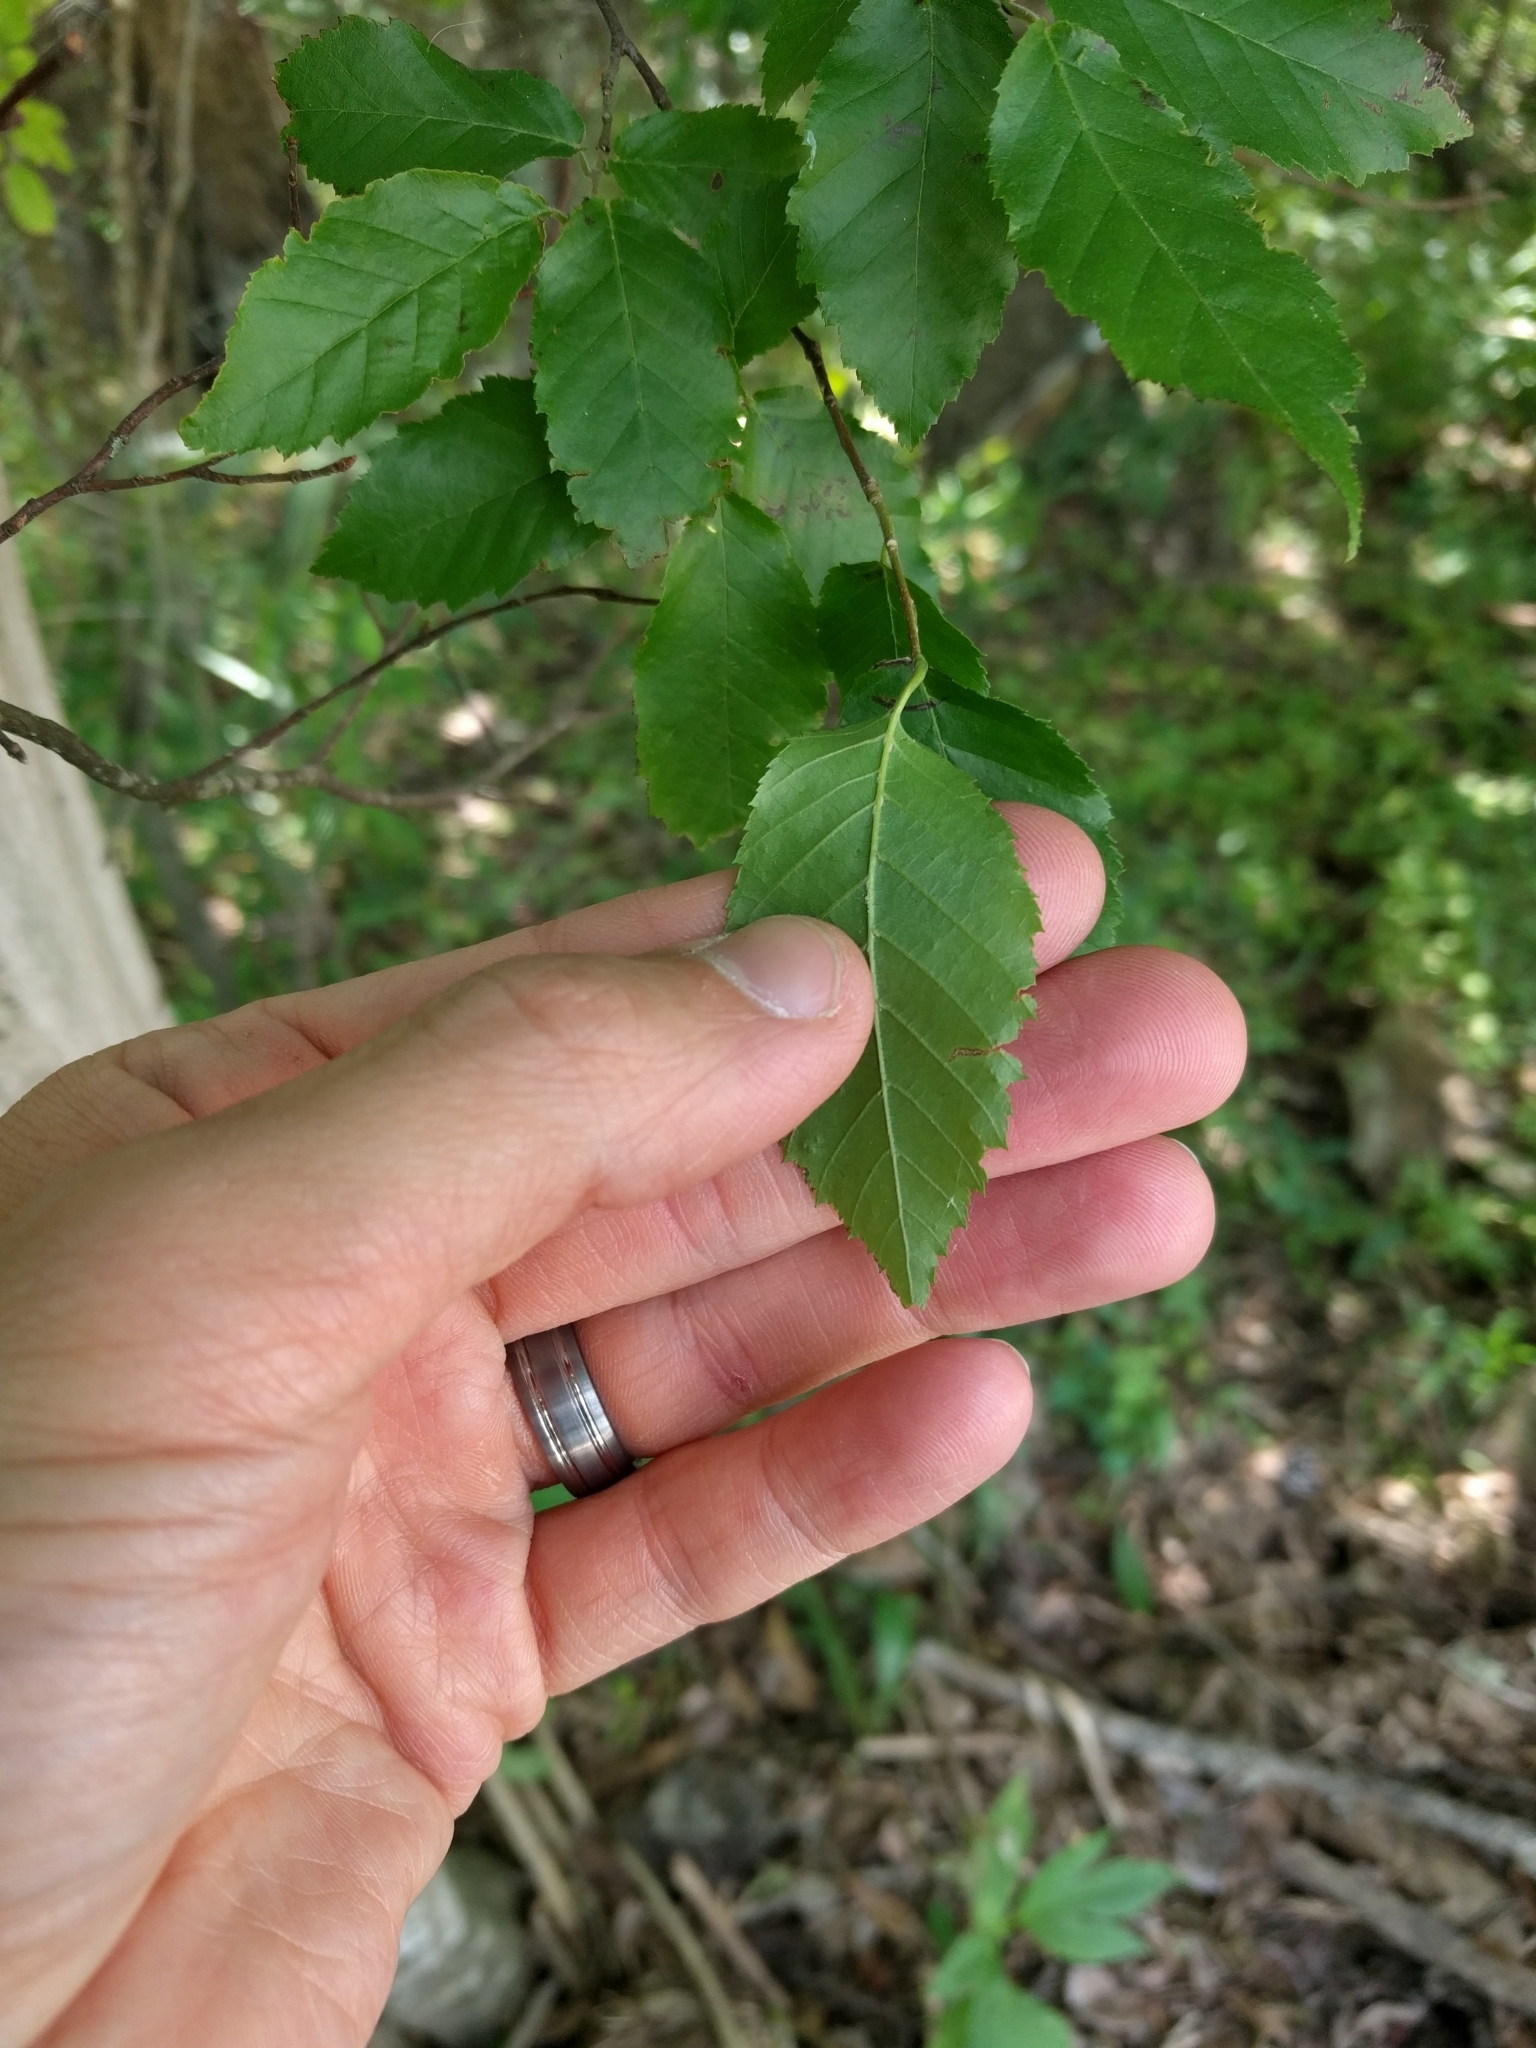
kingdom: Plantae
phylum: Tracheophyta
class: Magnoliopsida
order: Fagales
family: Betulaceae
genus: Carpinus
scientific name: Carpinus caroliniana
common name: American hornbeam
